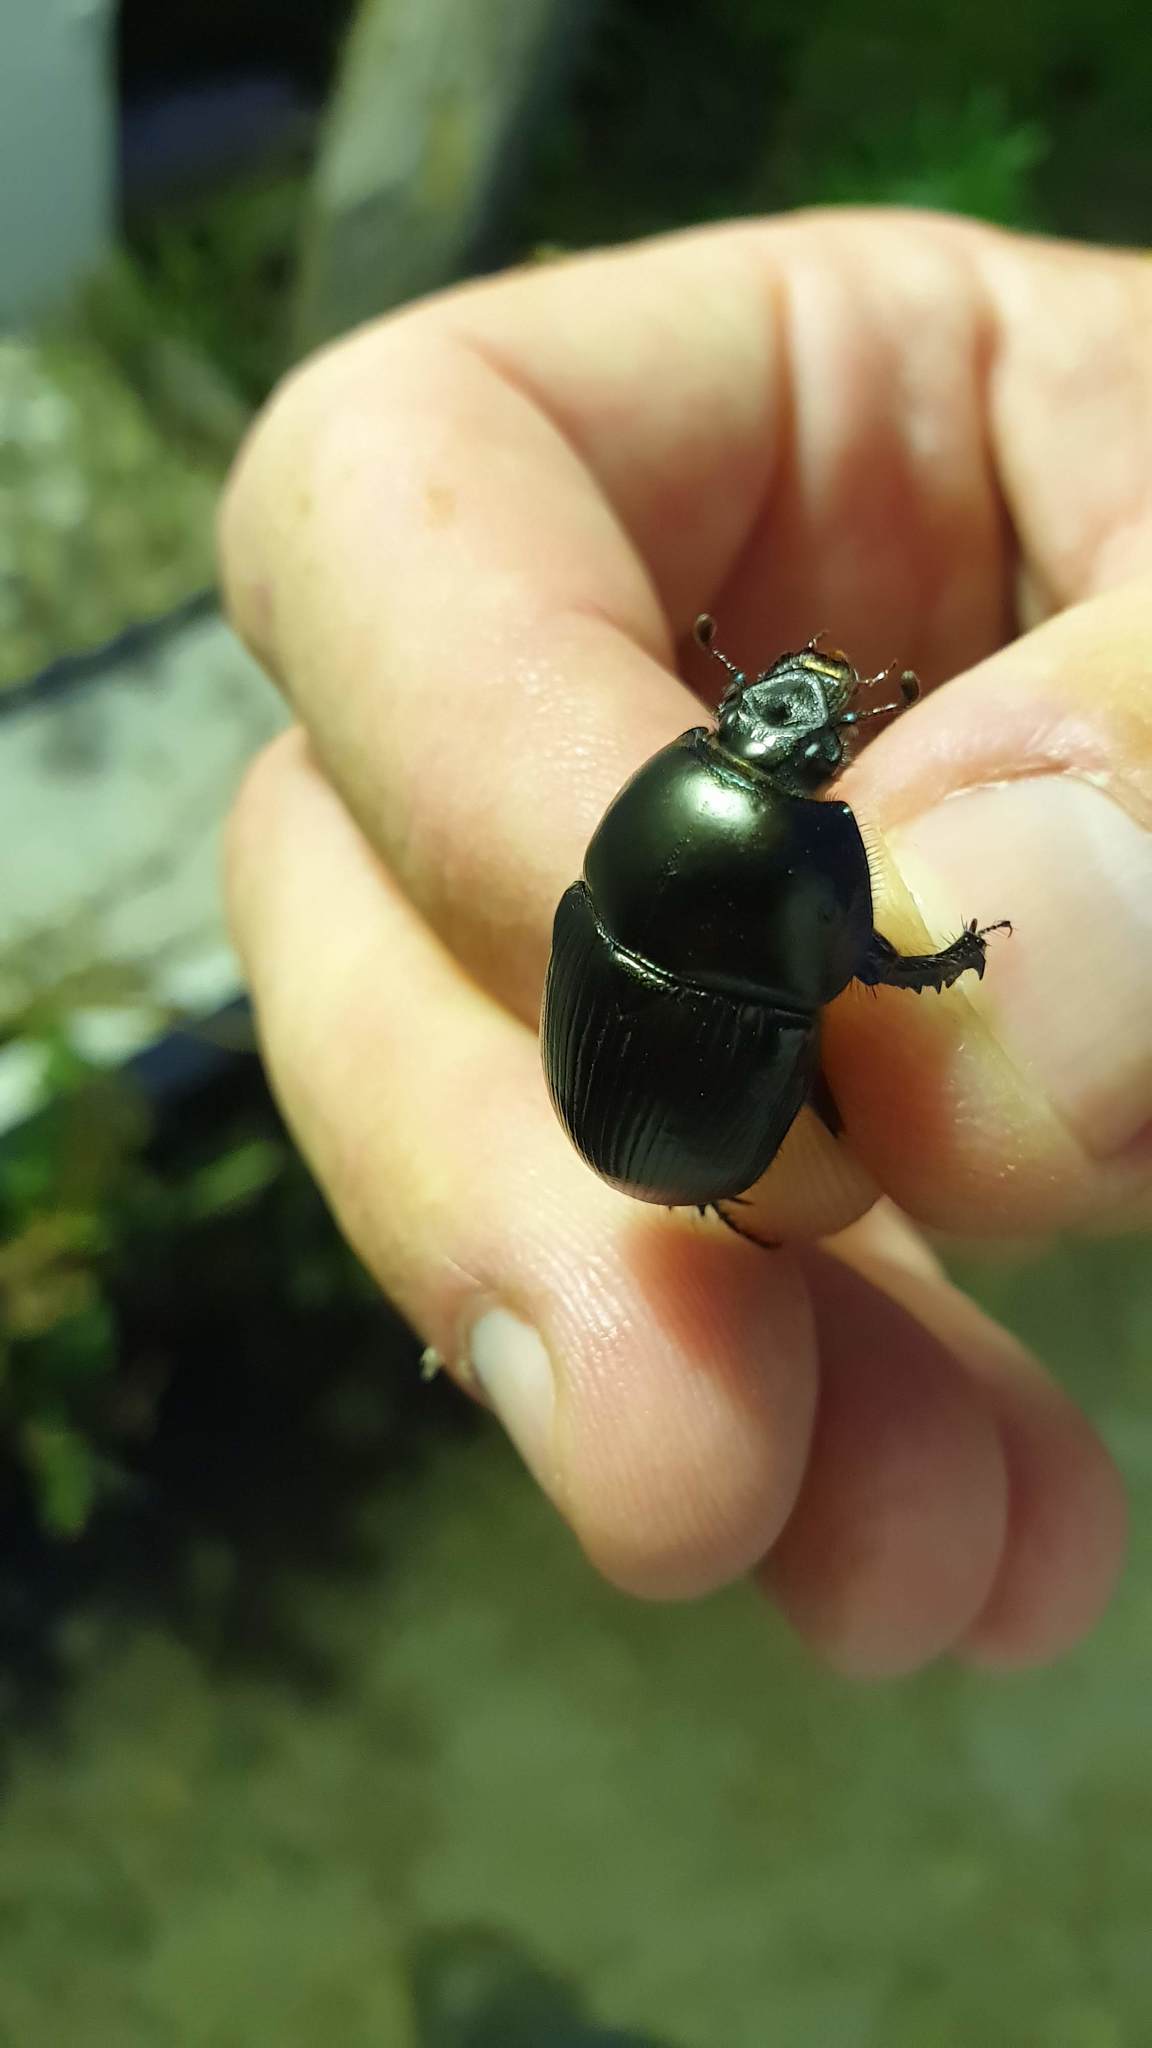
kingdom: Animalia
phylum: Arthropoda
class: Insecta
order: Coleoptera
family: Geotrupidae
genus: Geotrupes
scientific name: Geotrupes spiniger
